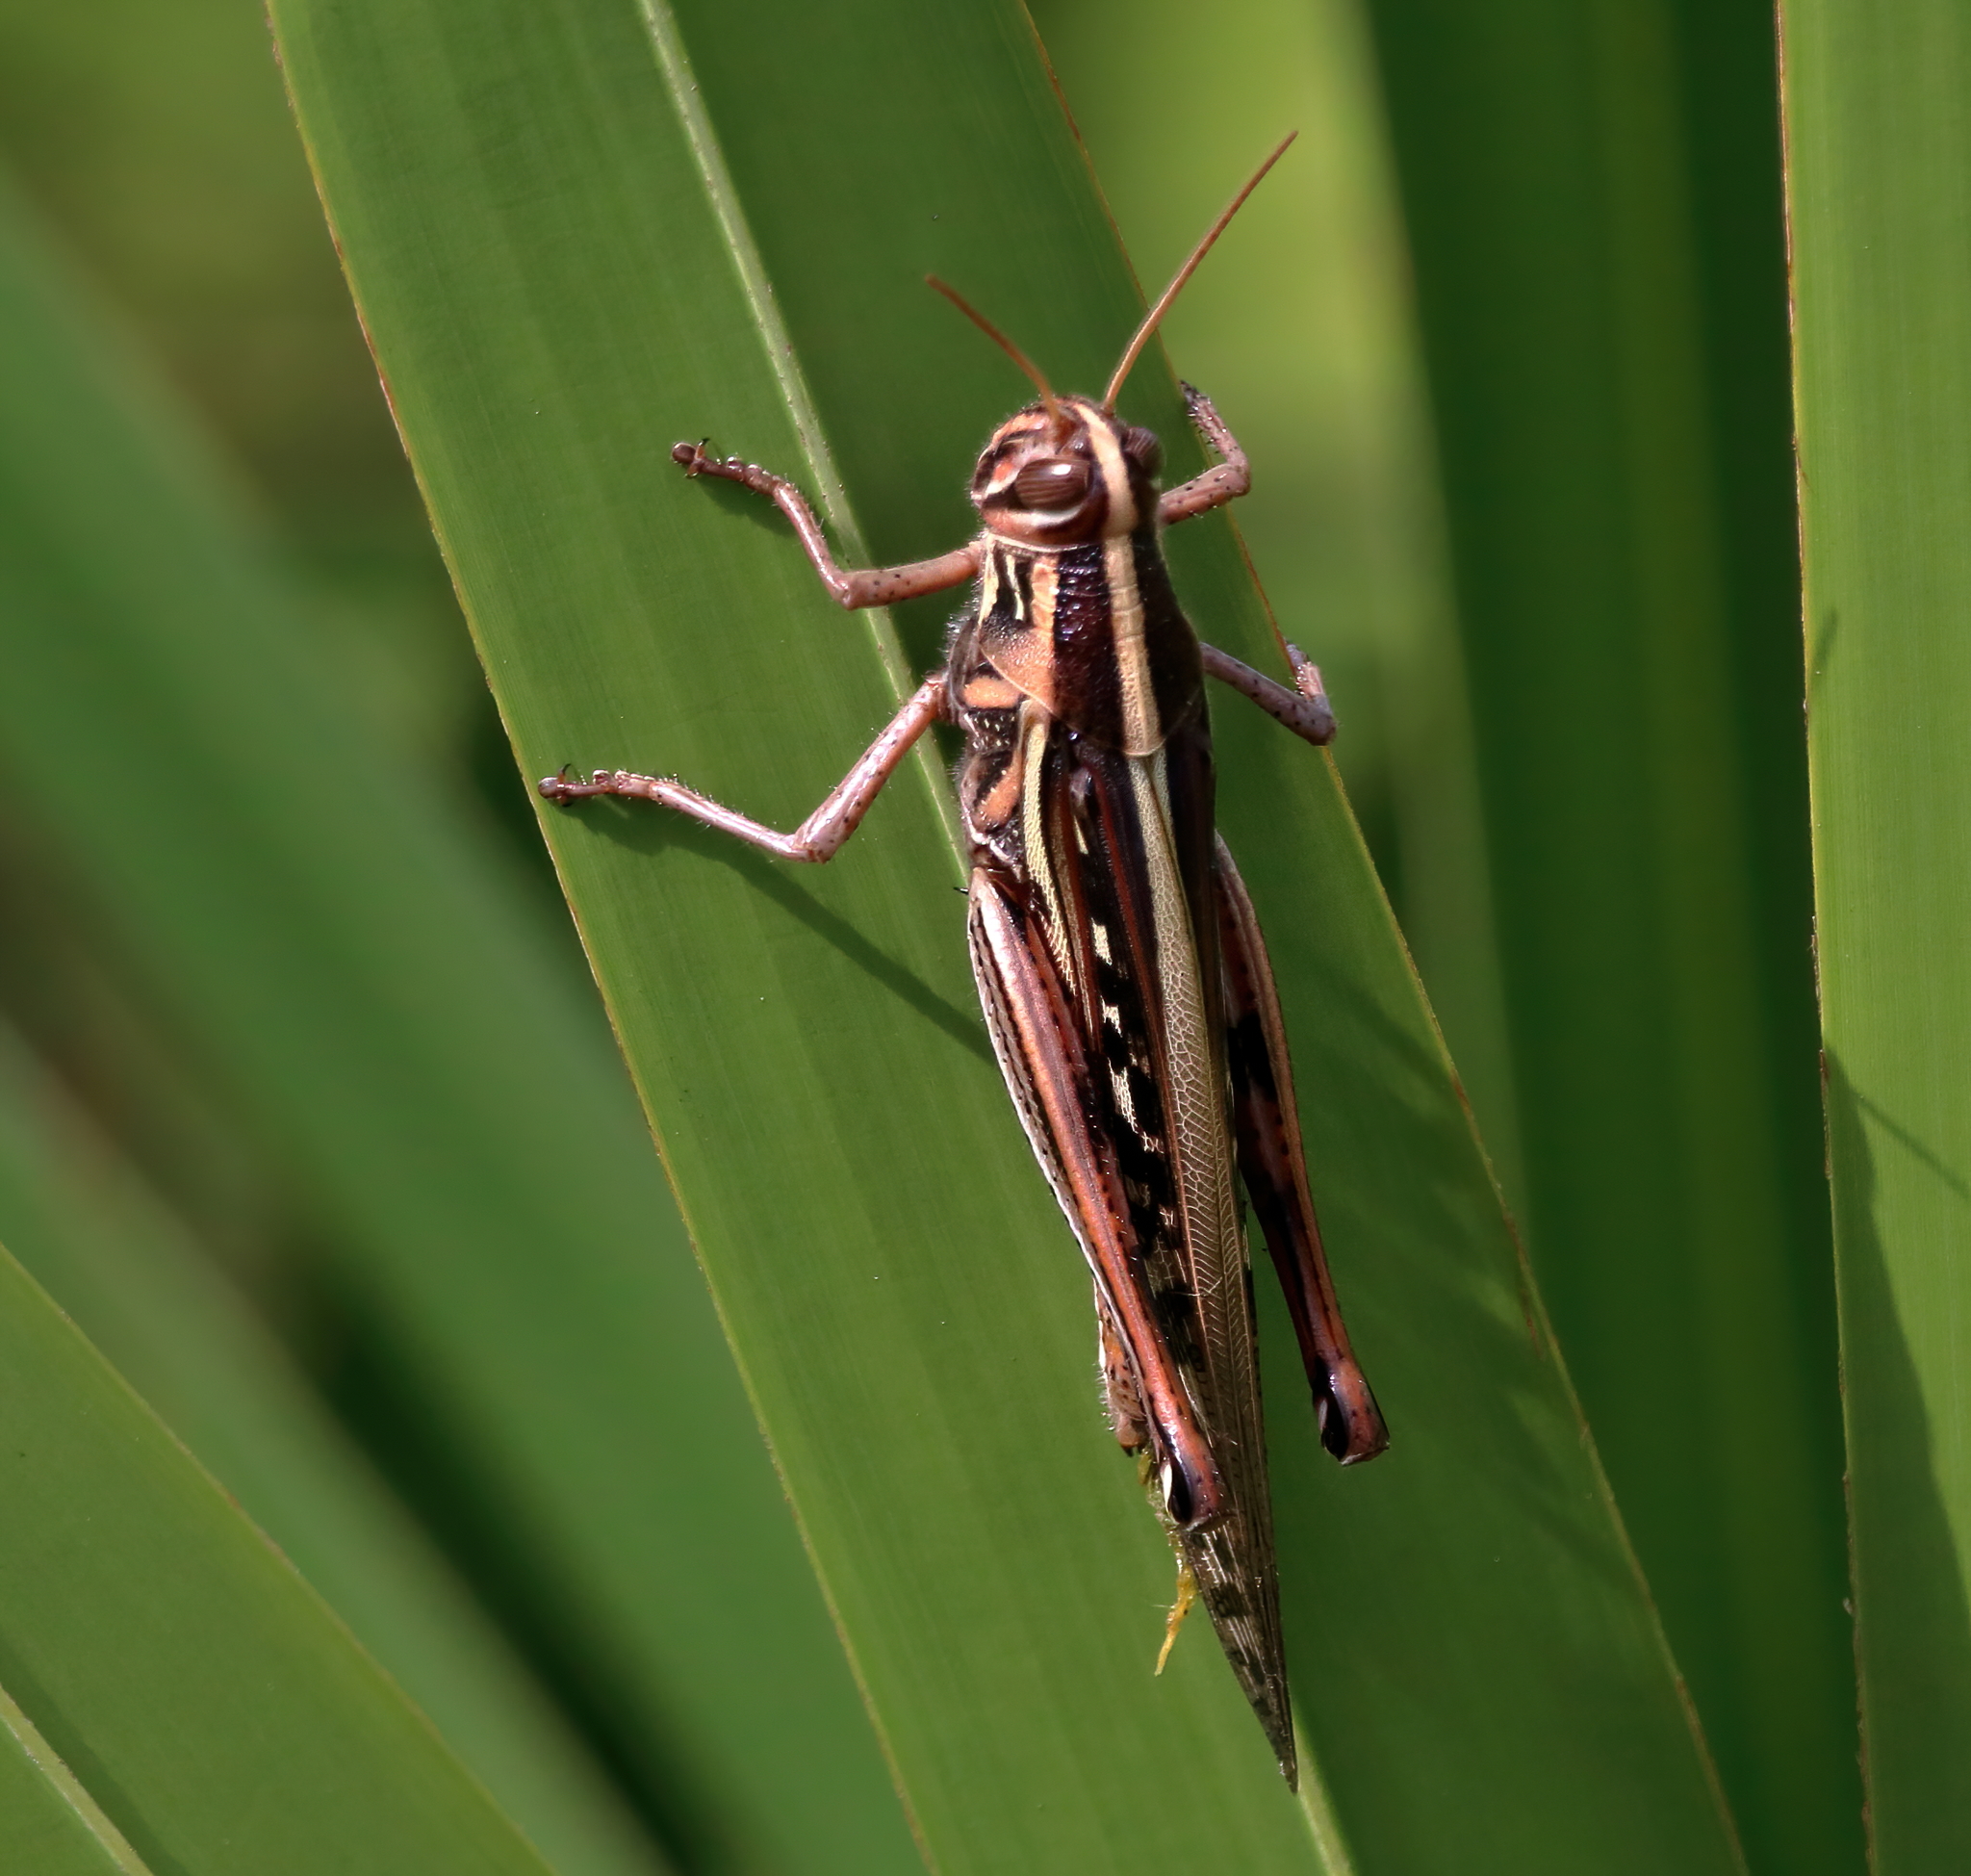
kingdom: Animalia
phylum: Arthropoda
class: Insecta
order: Orthoptera
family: Acrididae
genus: Schistocerca
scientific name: Schistocerca americana
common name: American bird locust
